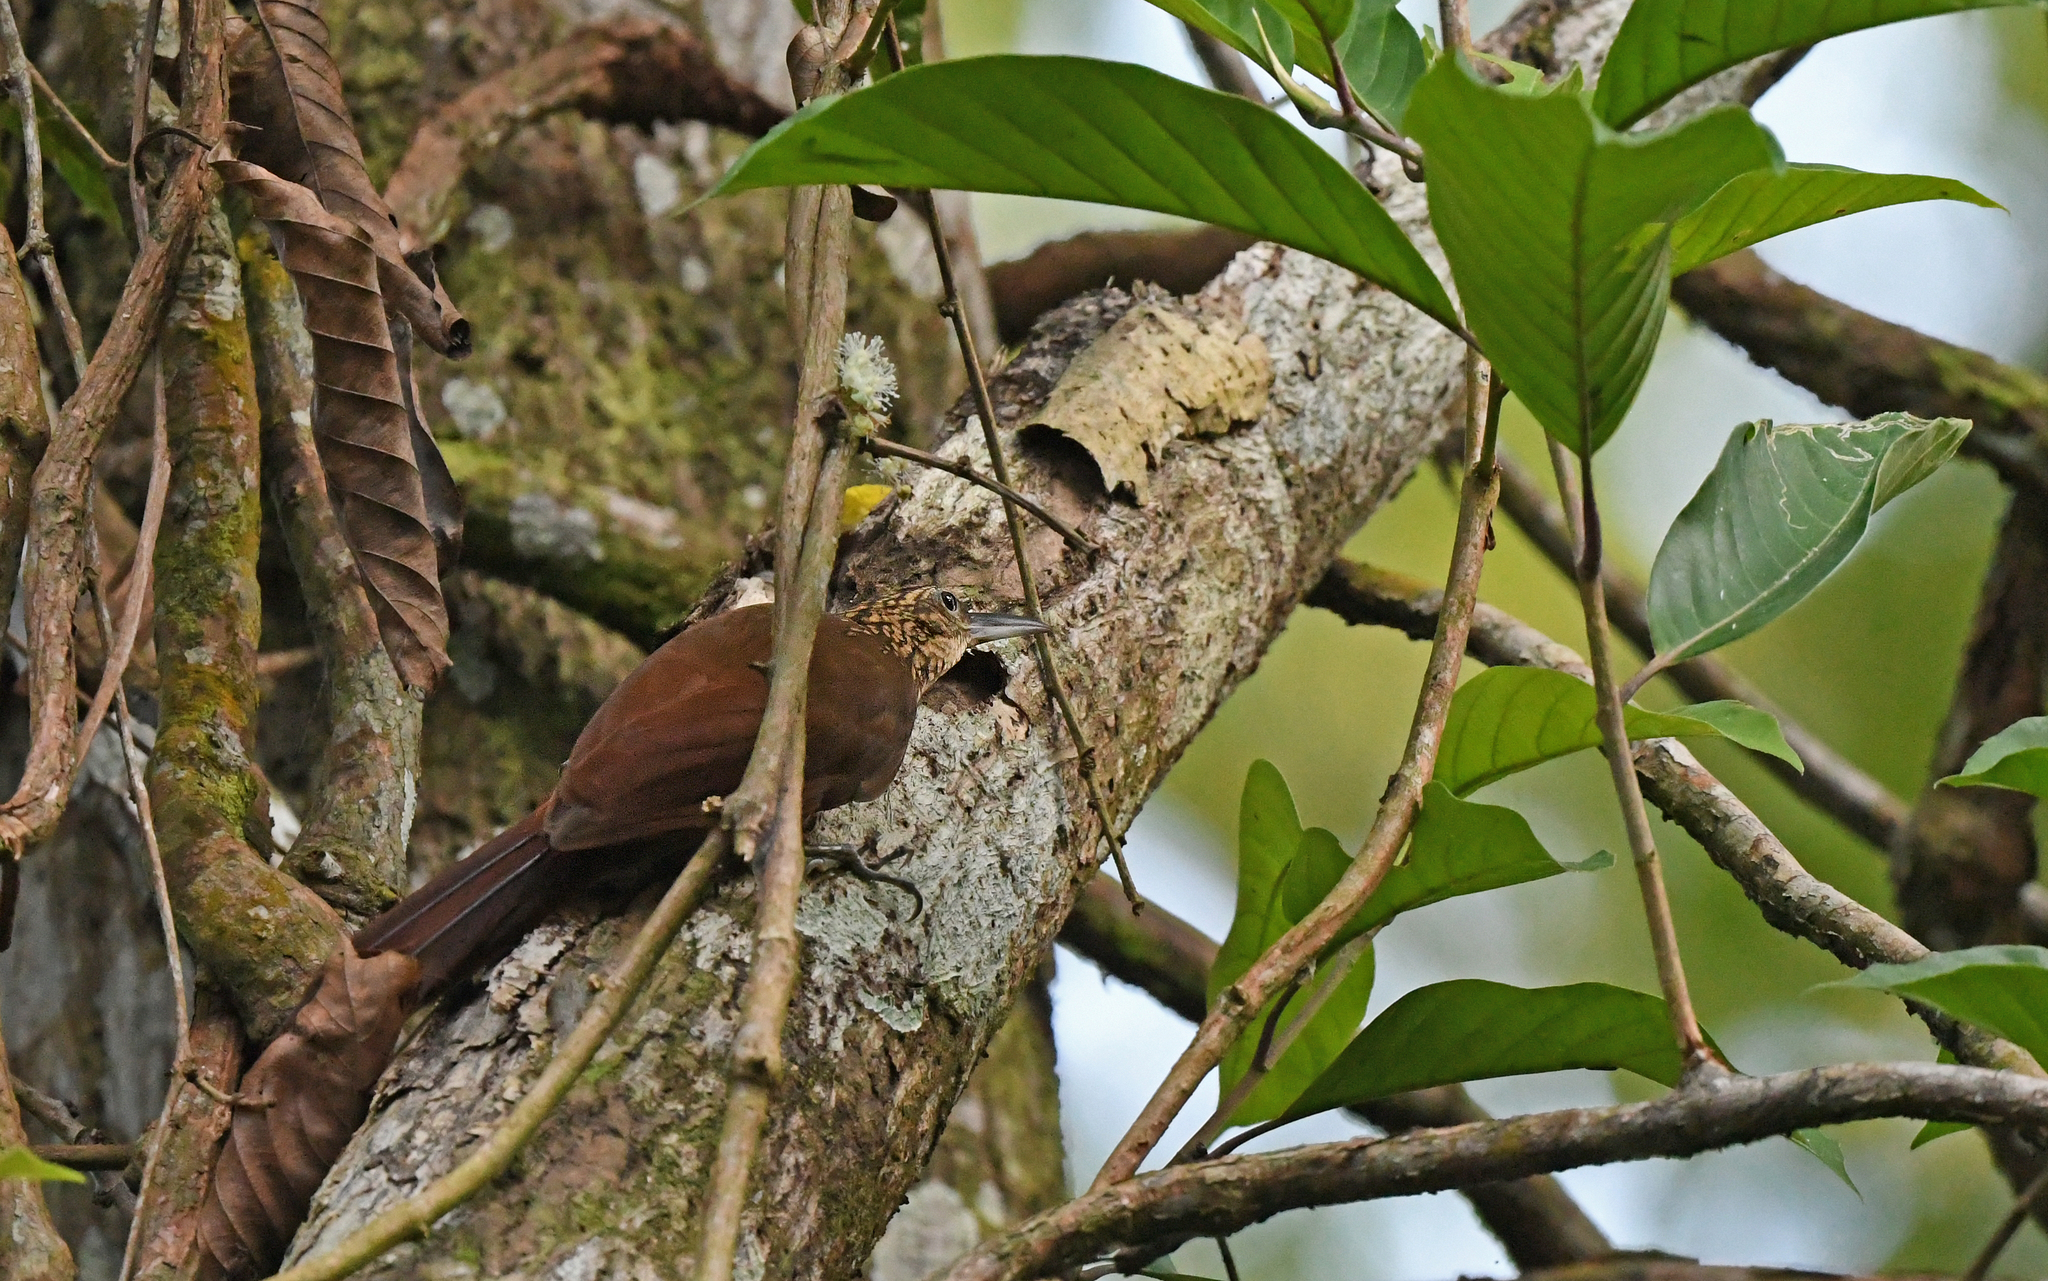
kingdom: Animalia
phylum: Chordata
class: Aves
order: Passeriformes
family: Furnariidae
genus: Xiphorhynchus
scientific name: Xiphorhynchus susurrans
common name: Cocoa woodcreeper
